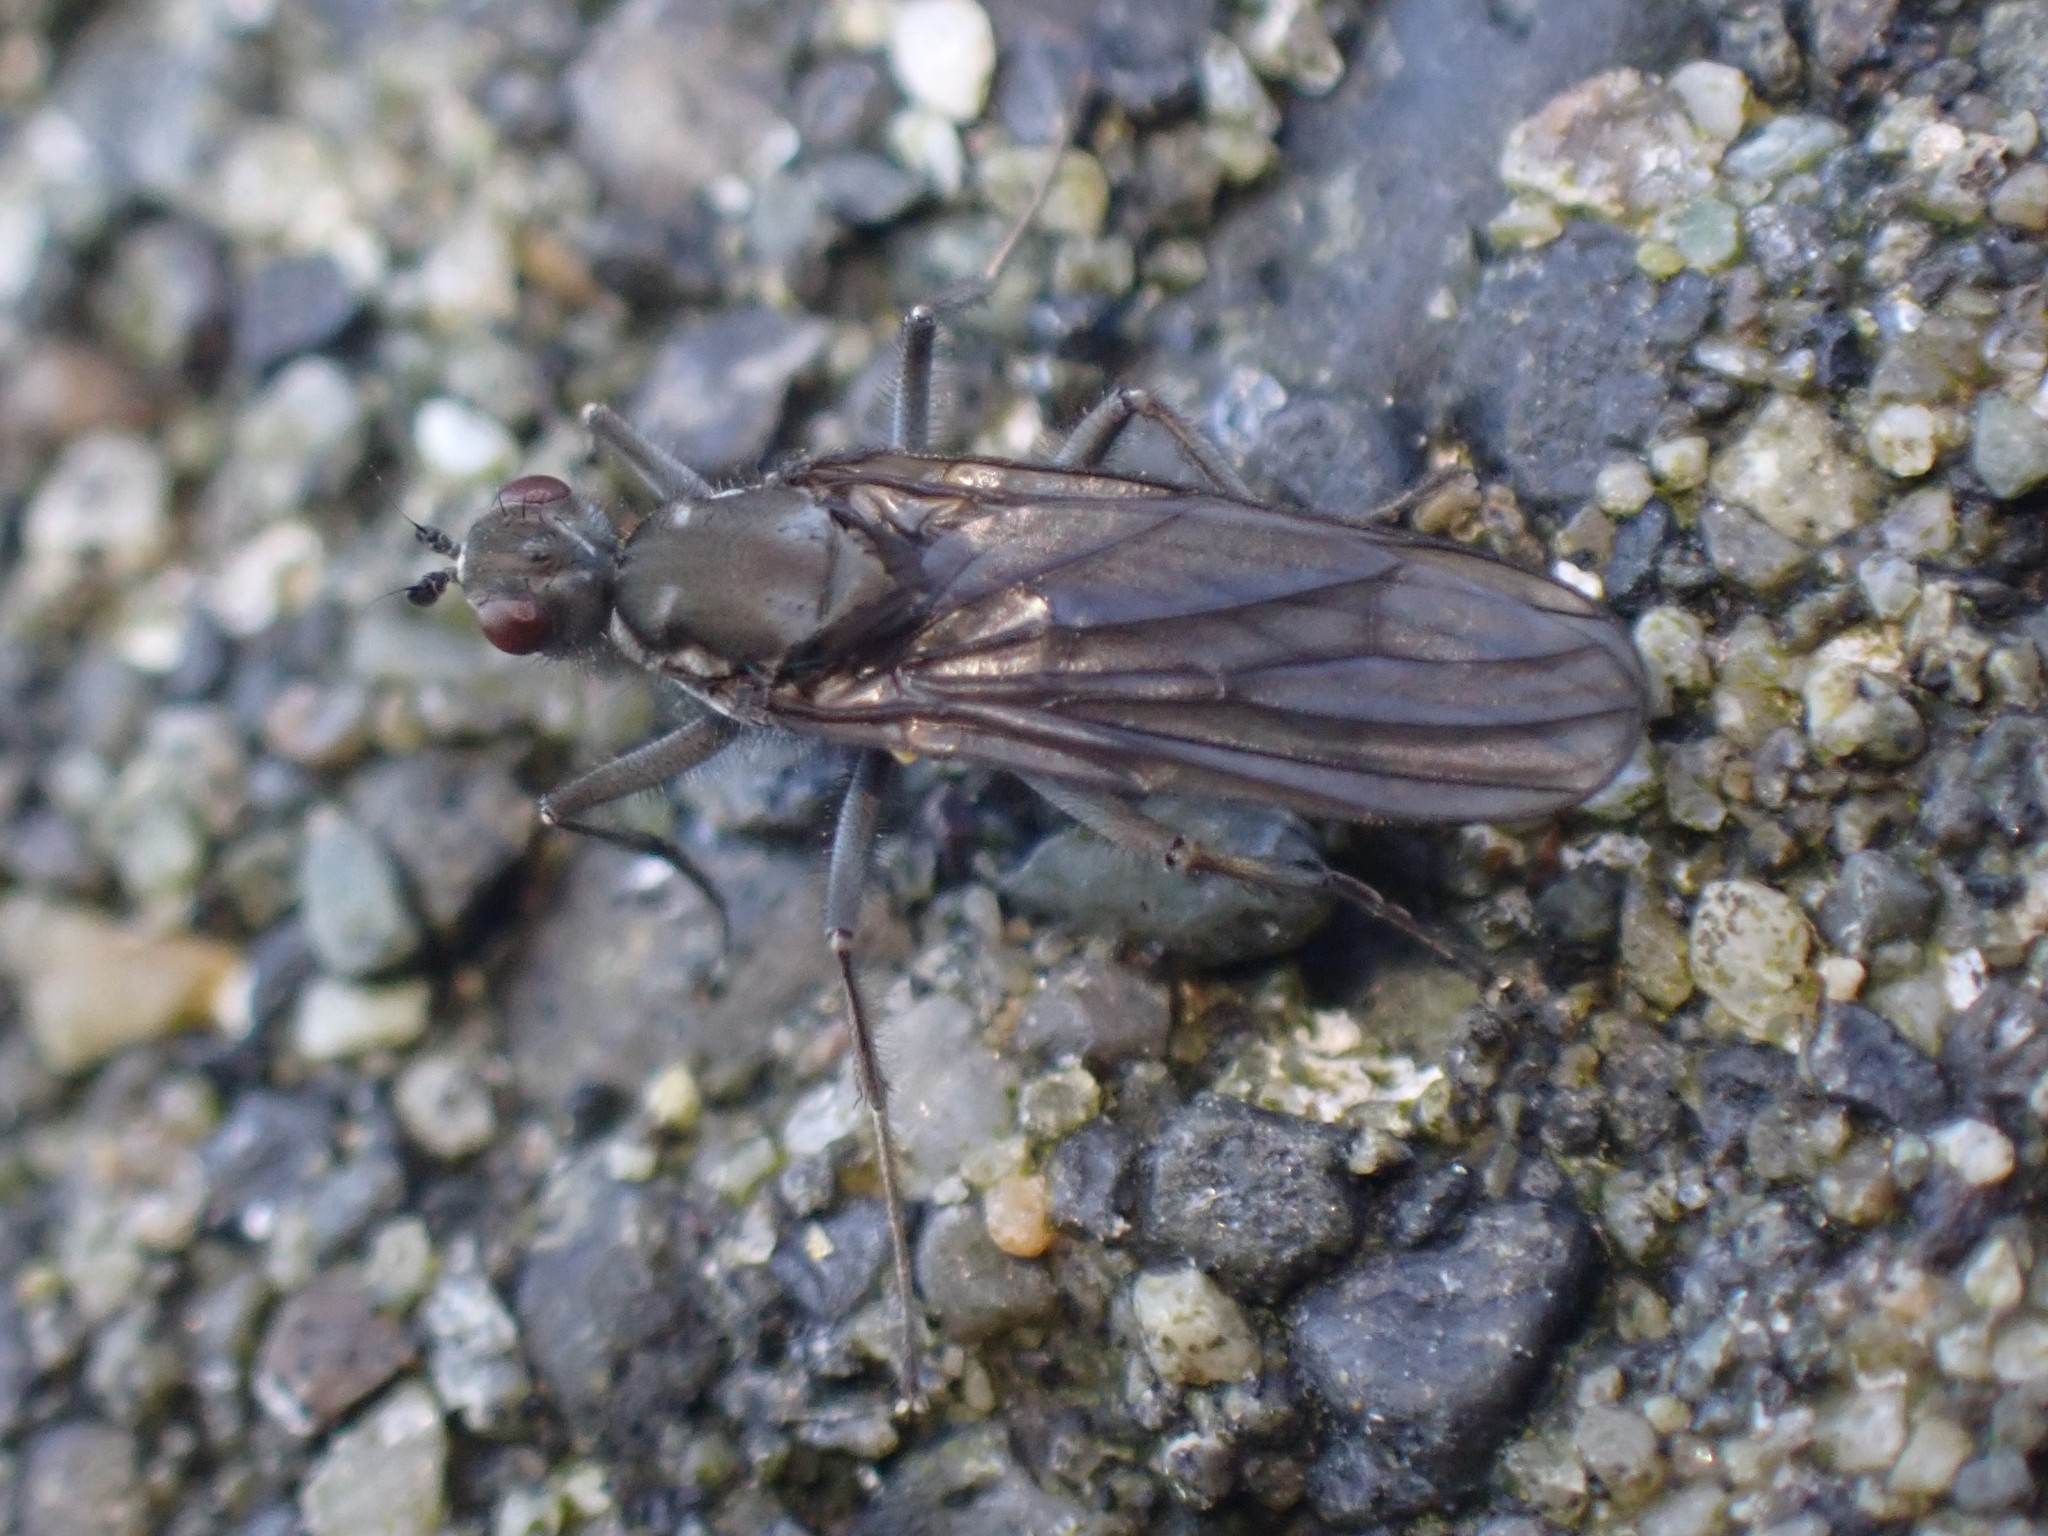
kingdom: Animalia
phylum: Arthropoda
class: Insecta
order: Diptera
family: Dryomyzidae
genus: Oedoparena
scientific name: Oedoparena glauca
